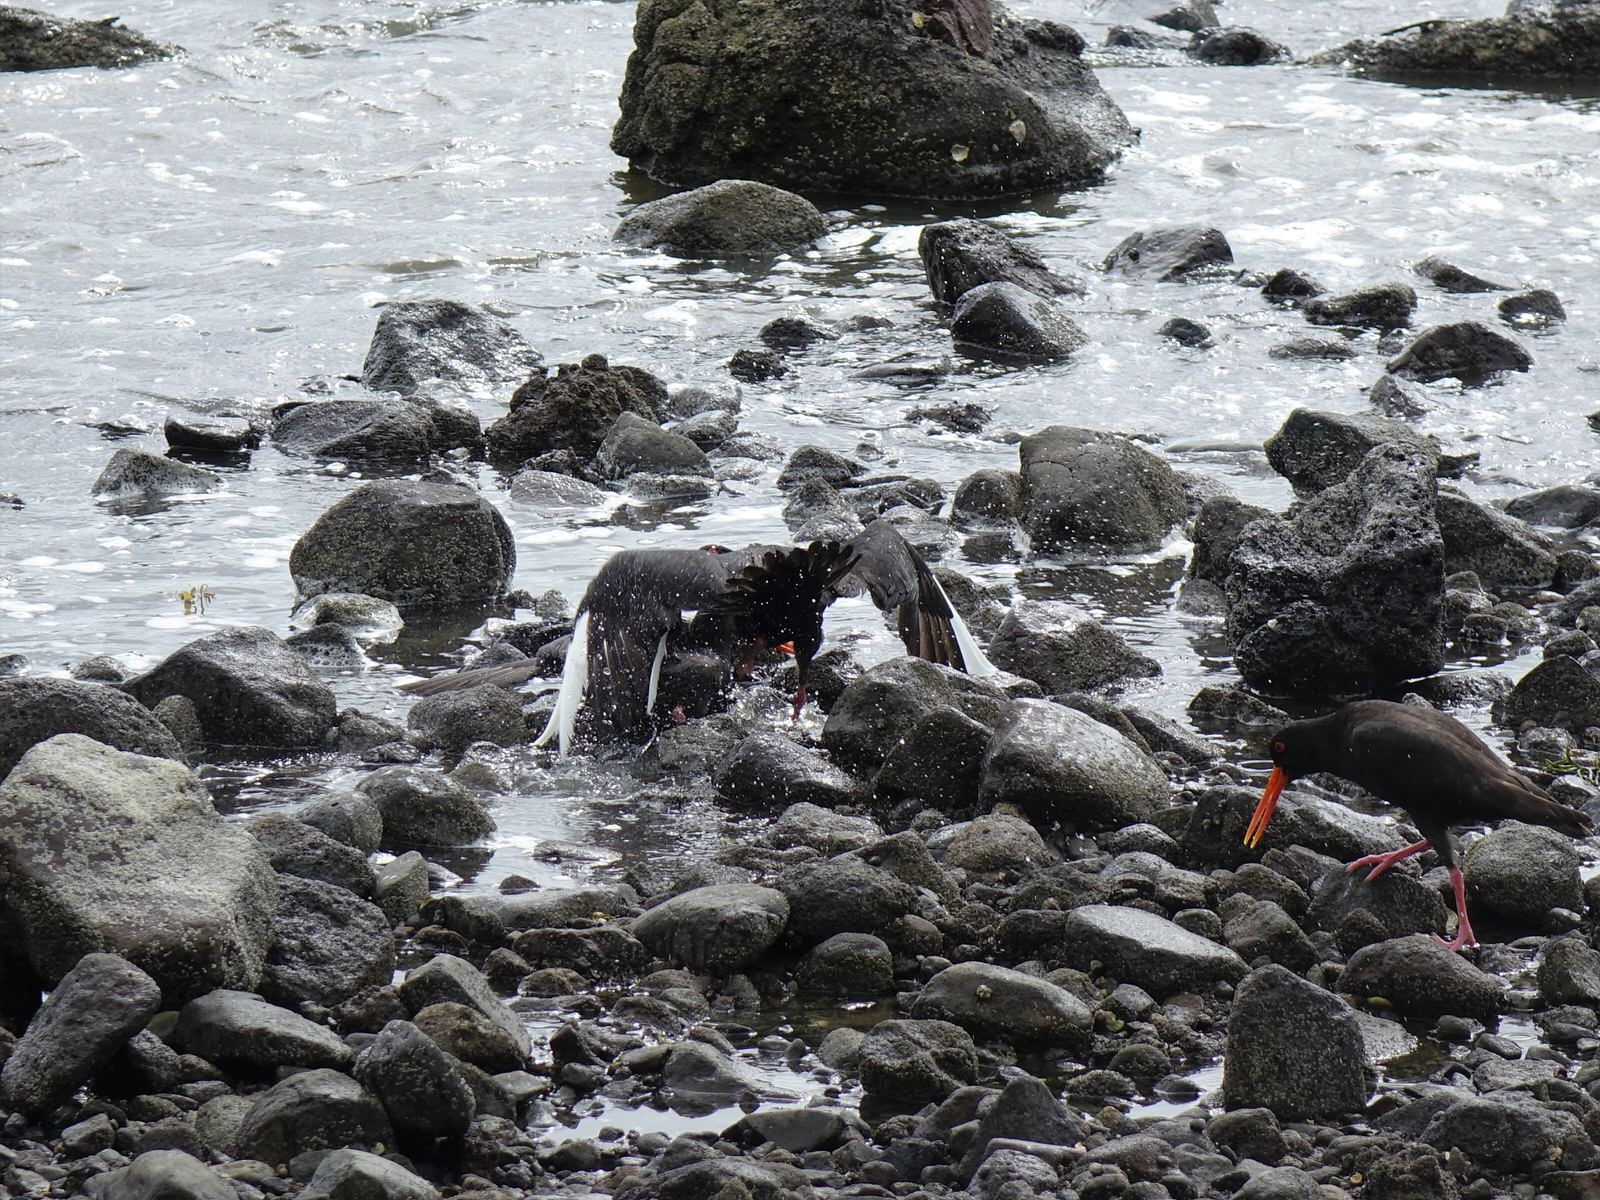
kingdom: Animalia
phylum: Chordata
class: Aves
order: Charadriiformes
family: Haematopodidae
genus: Haematopus
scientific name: Haematopus unicolor
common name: Variable oystercatcher
